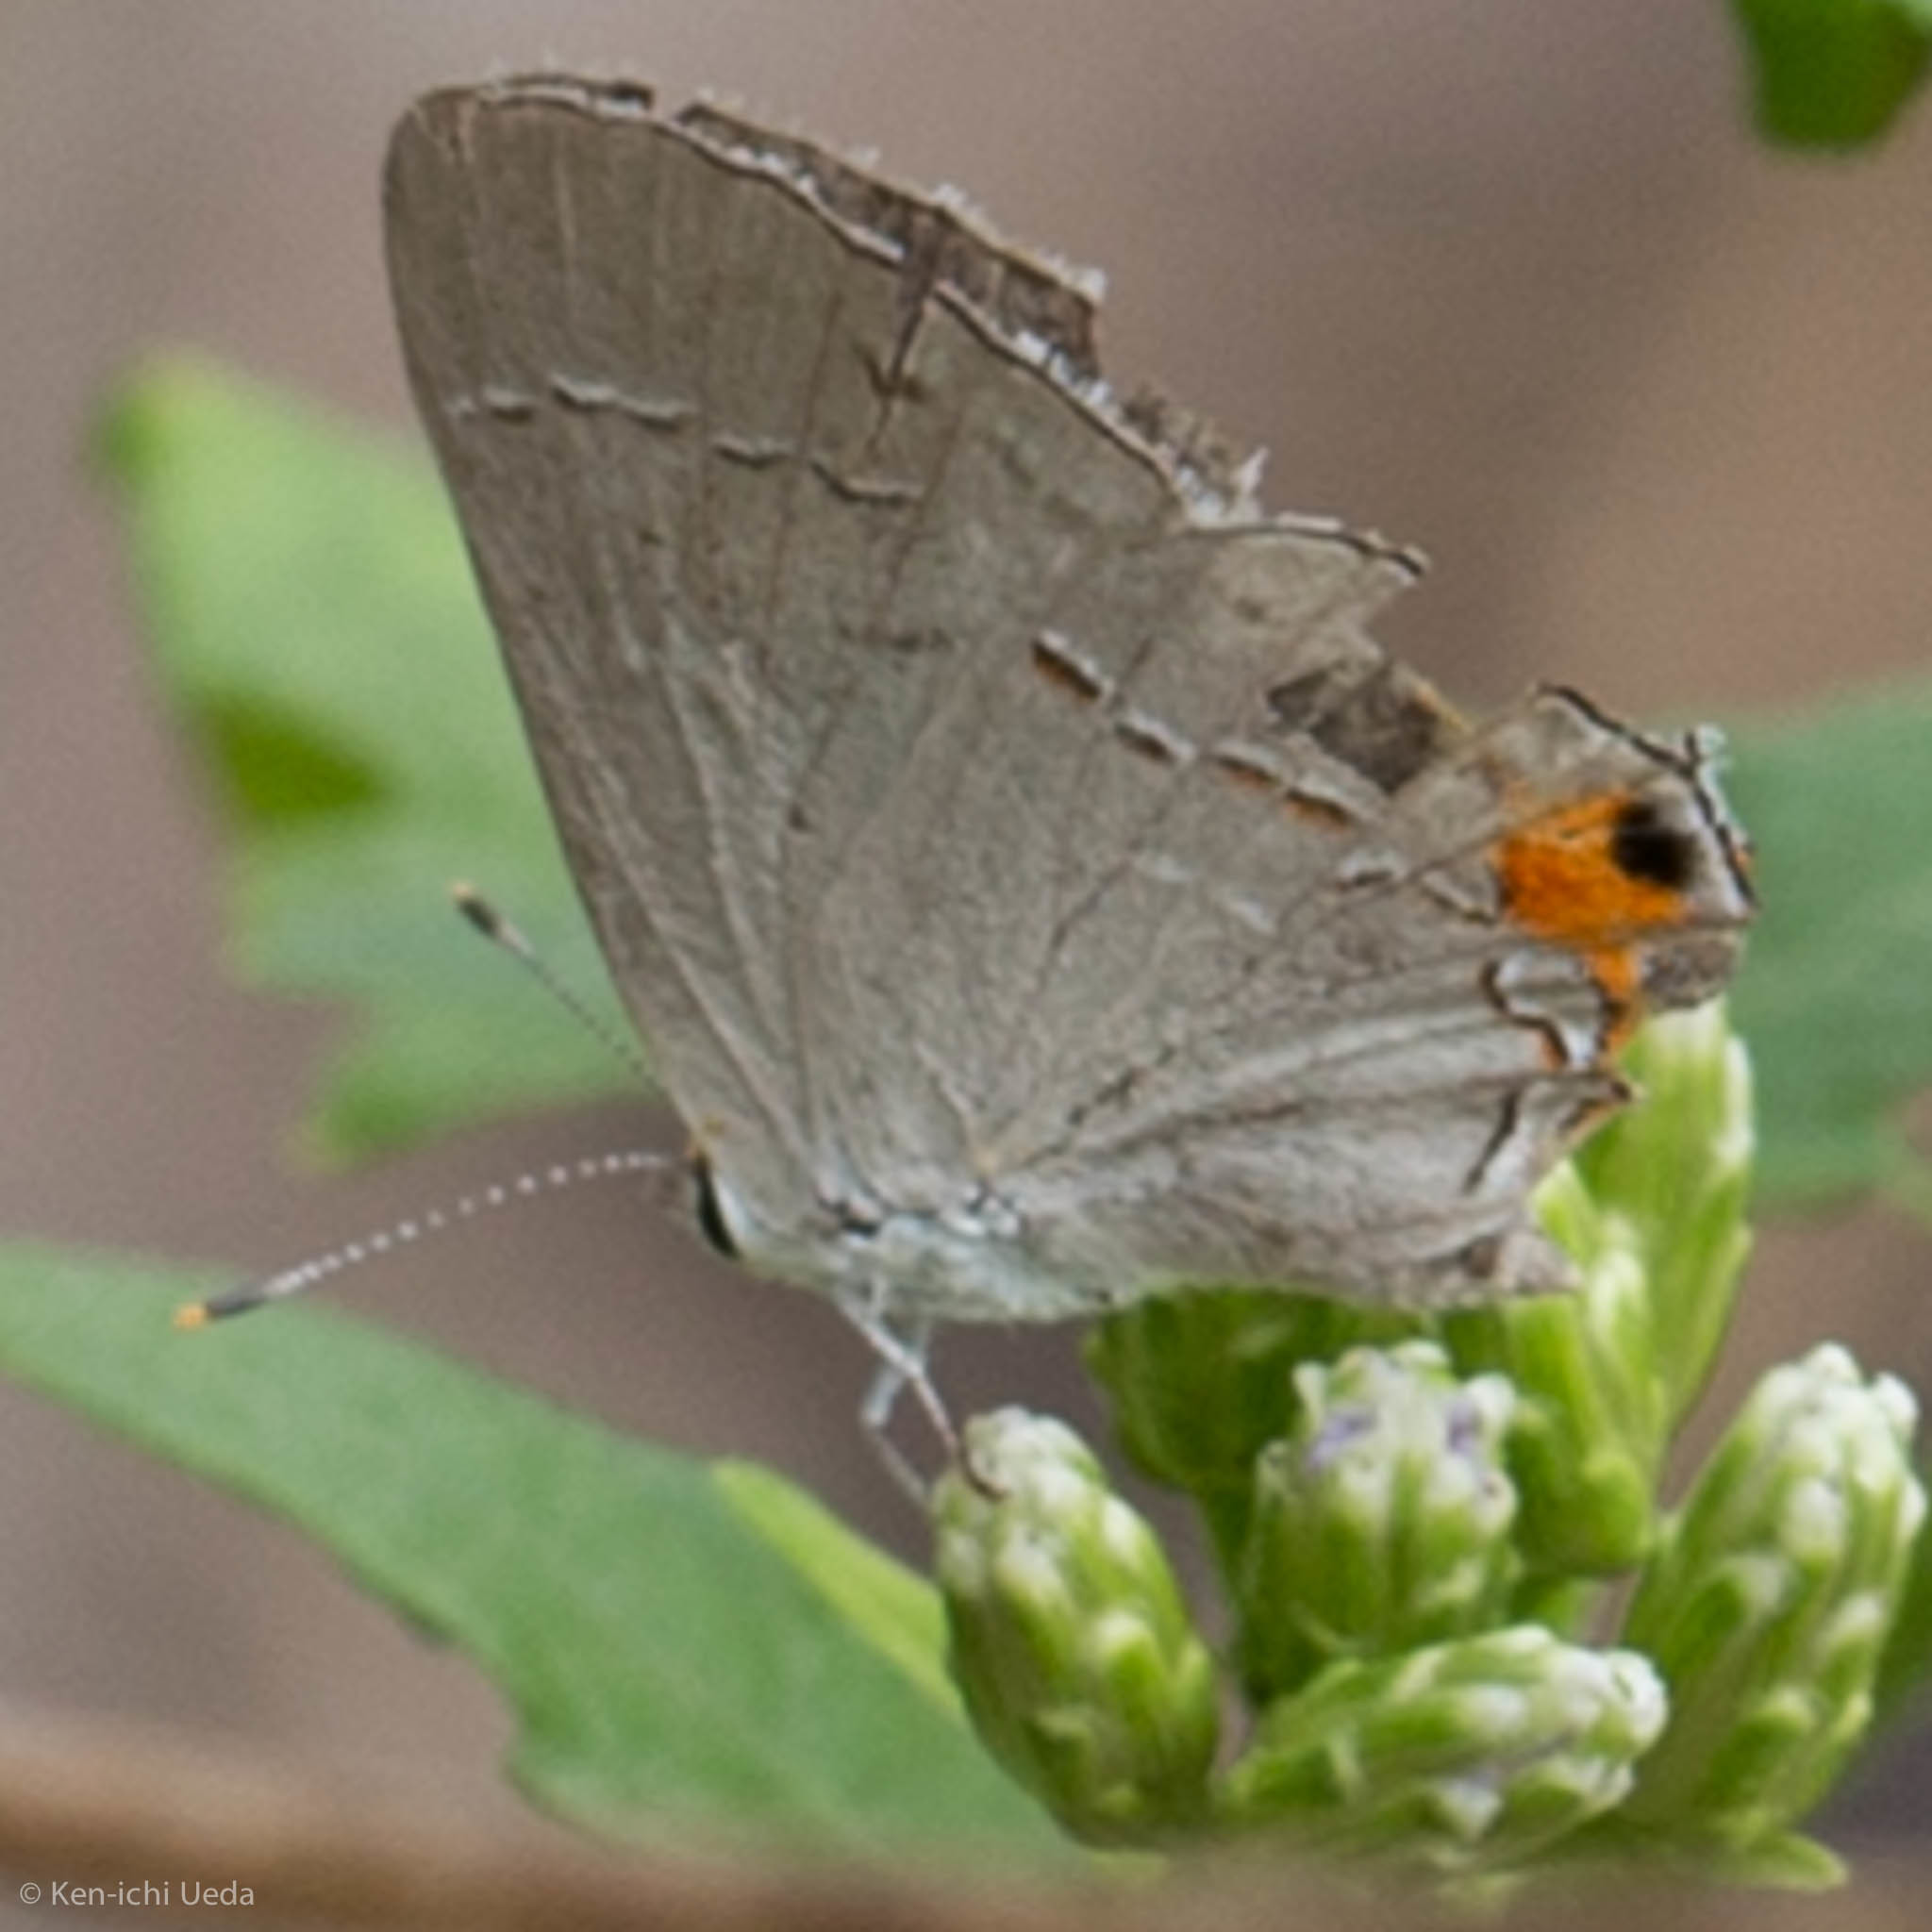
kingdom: Animalia
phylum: Arthropoda
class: Insecta
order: Lepidoptera
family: Lycaenidae
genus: Strymon
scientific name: Strymon melinus
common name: Gray hairstreak
